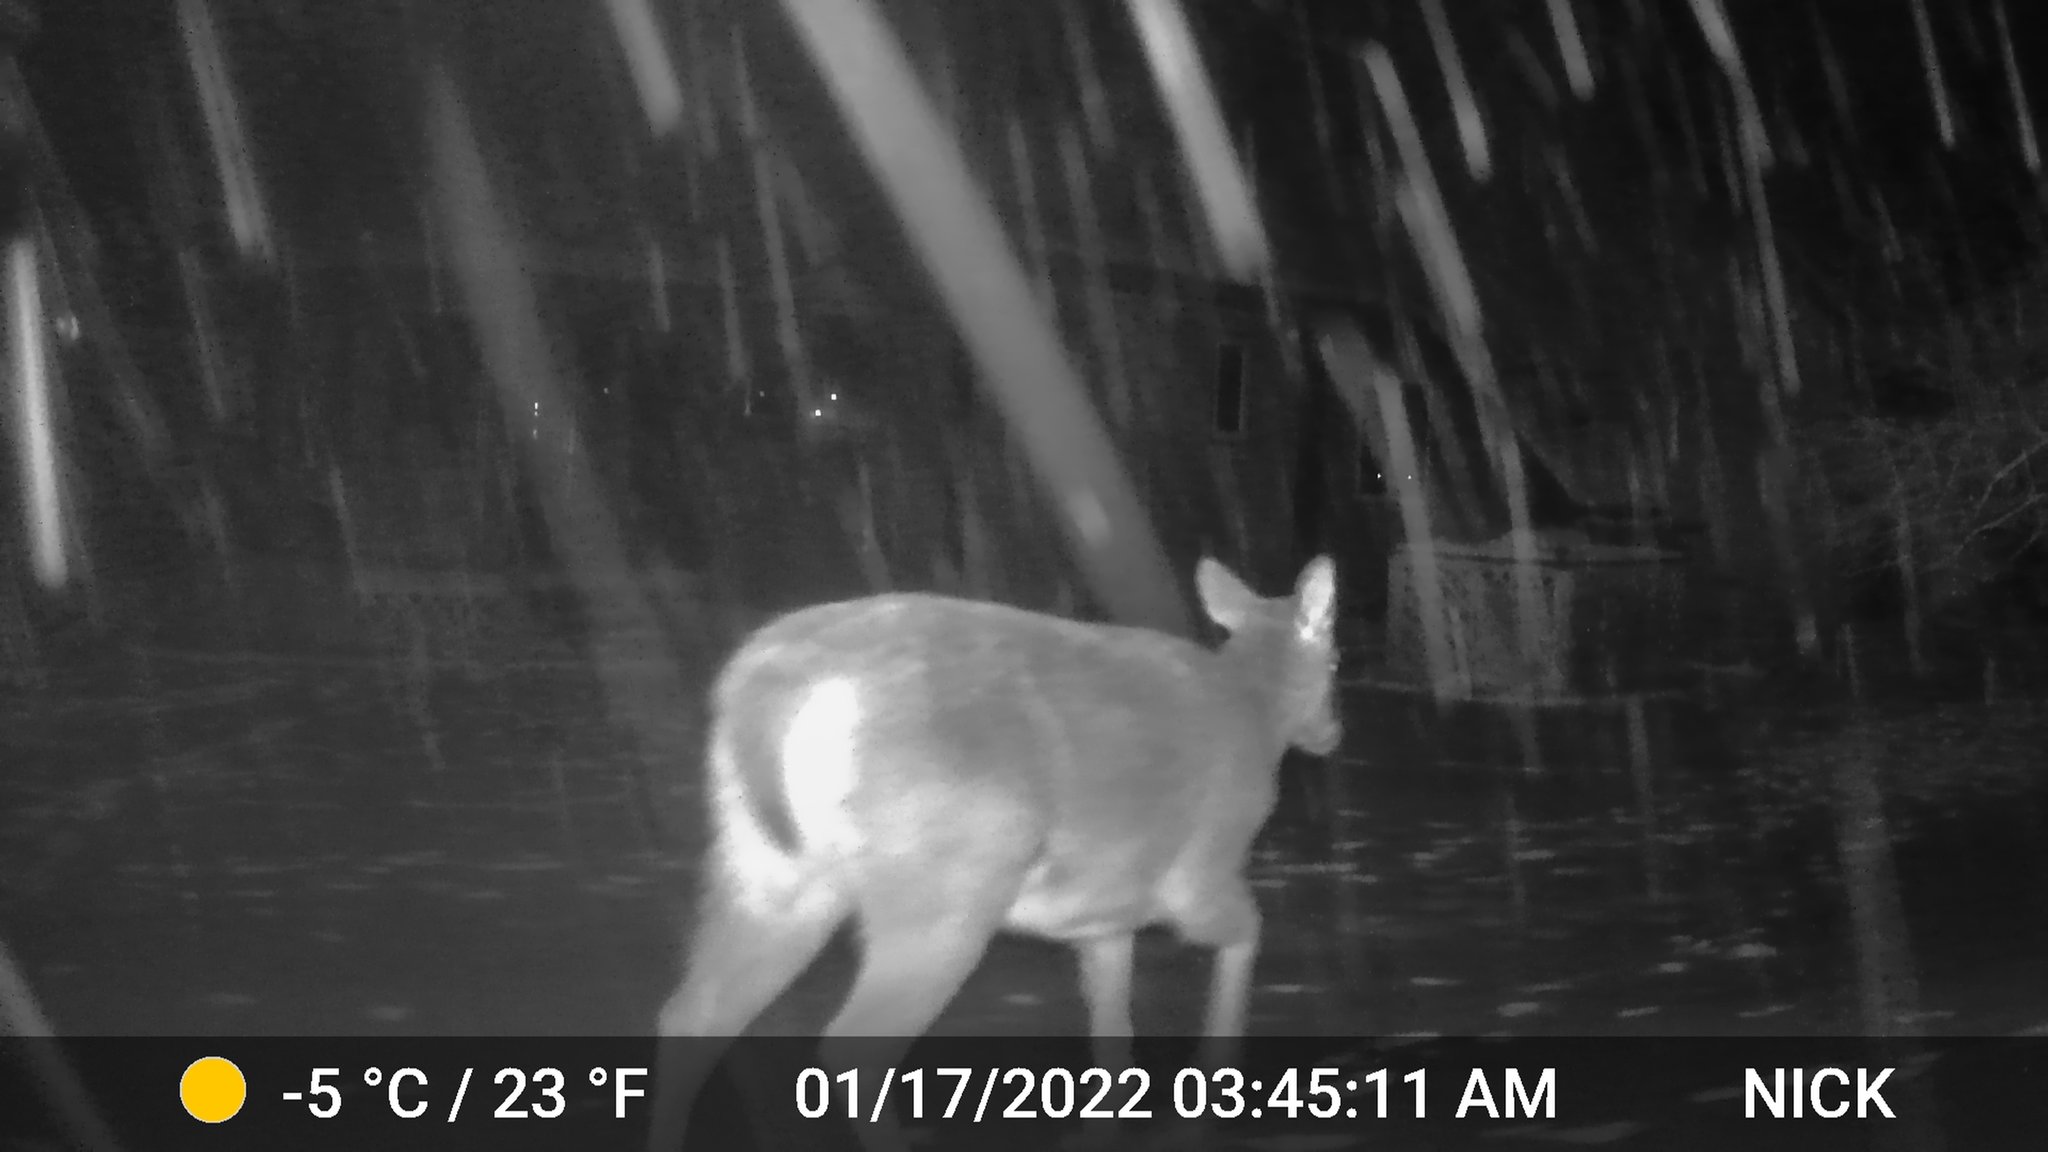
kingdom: Animalia
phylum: Chordata
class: Mammalia
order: Artiodactyla
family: Cervidae
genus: Odocoileus
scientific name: Odocoileus virginianus
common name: White-tailed deer
